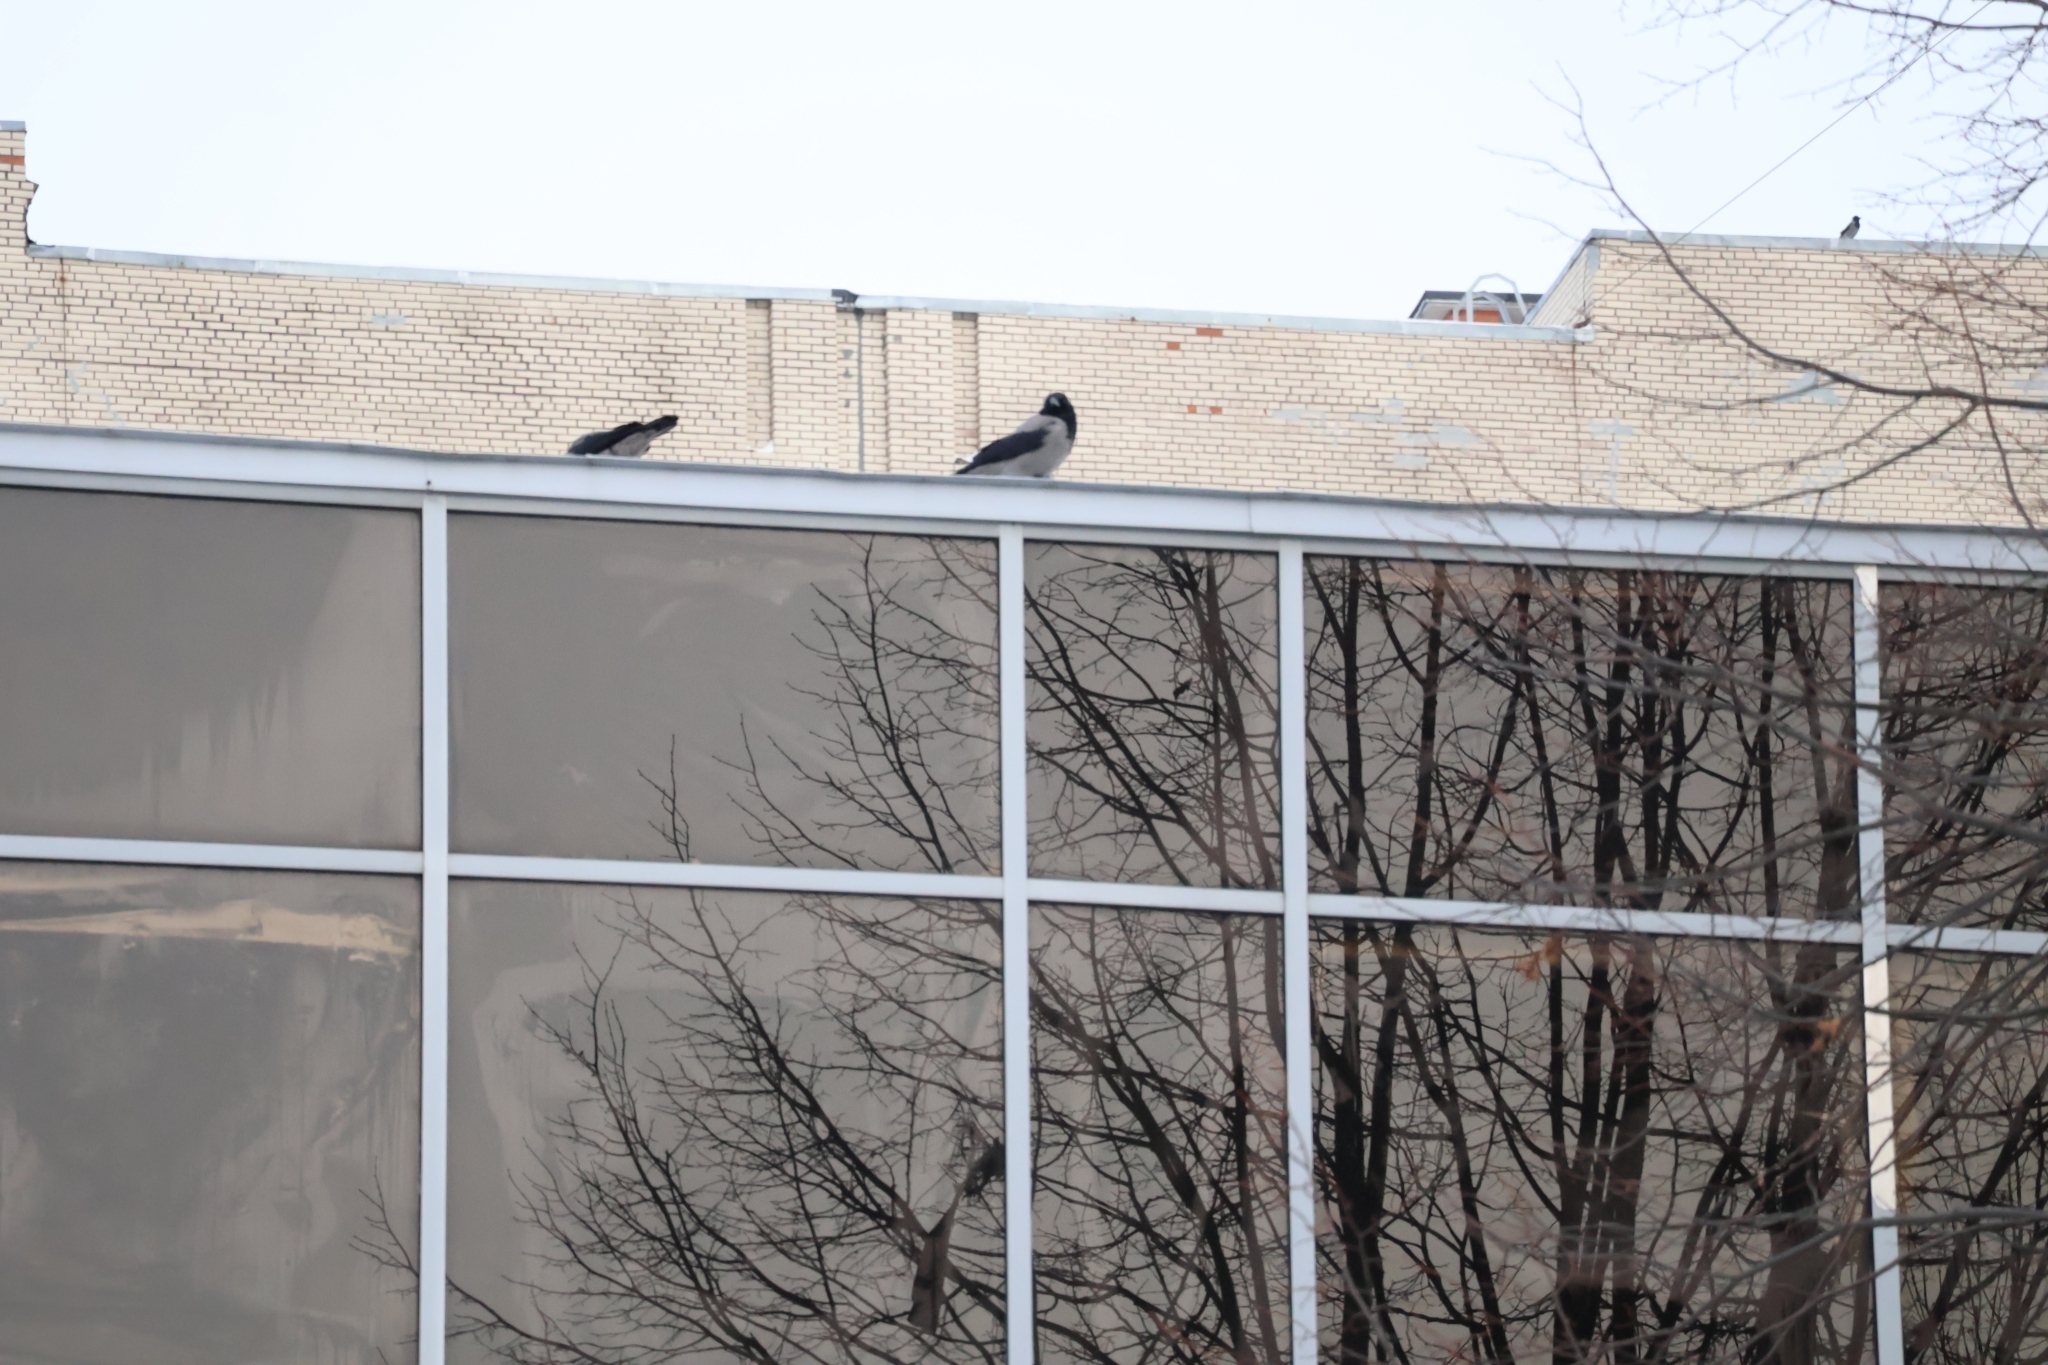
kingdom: Animalia
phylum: Chordata
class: Aves
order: Passeriformes
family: Corvidae
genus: Corvus
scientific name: Corvus cornix
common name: Hooded crow
